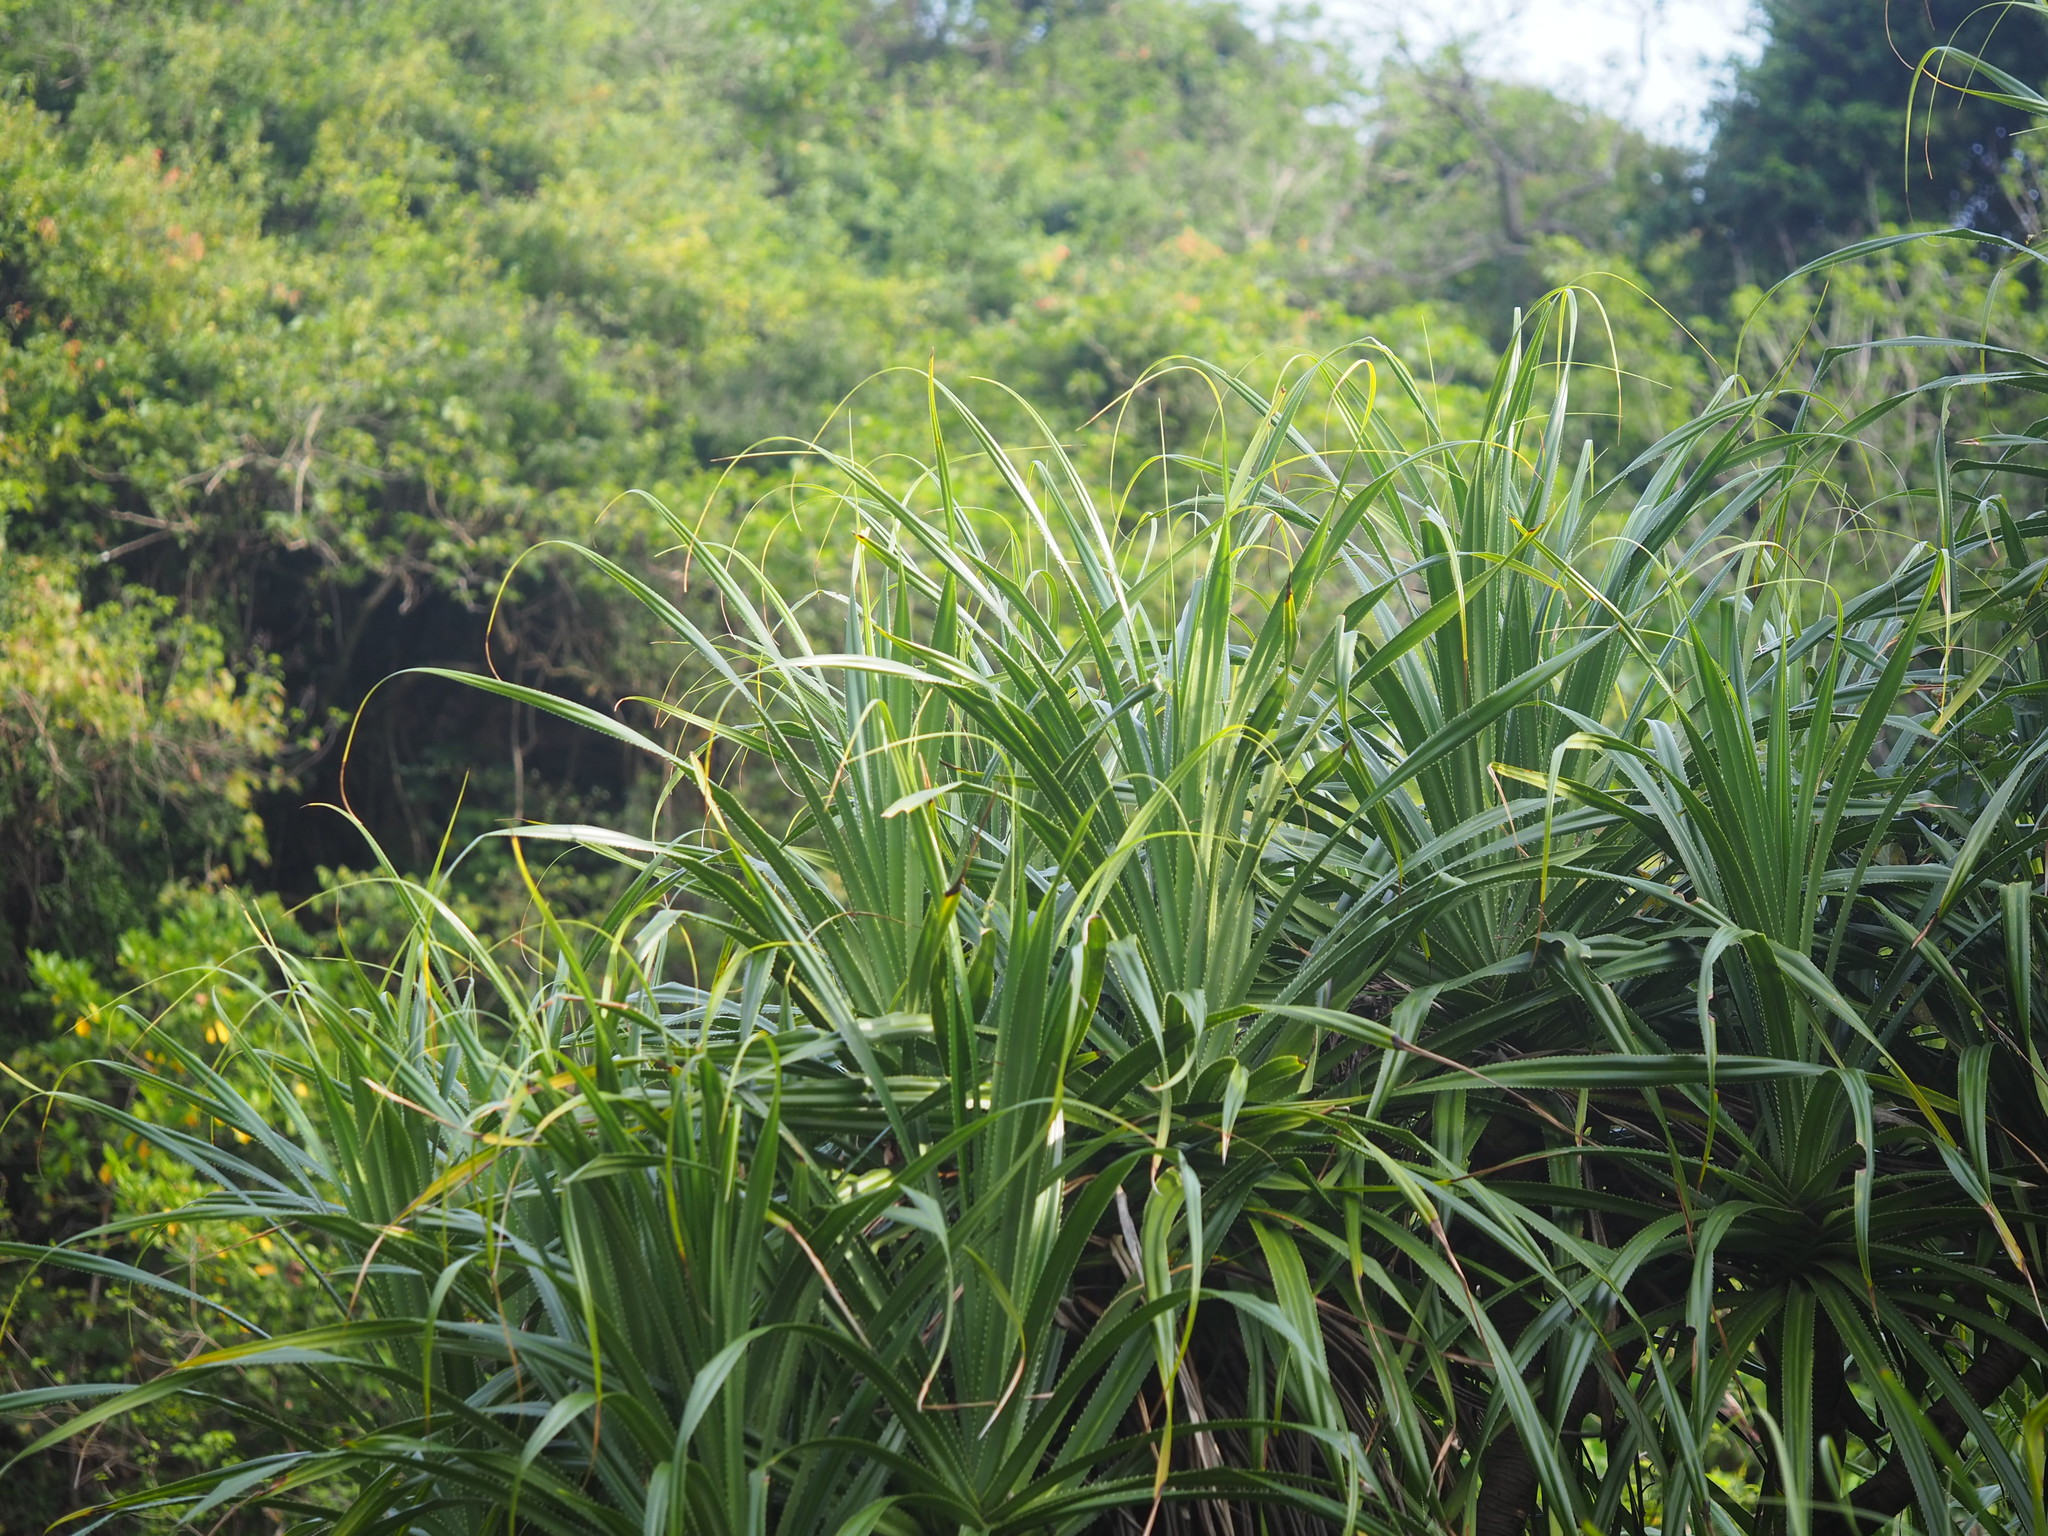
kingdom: Plantae
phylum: Tracheophyta
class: Liliopsida
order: Pandanales
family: Pandanaceae
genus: Pandanus
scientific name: Pandanus odorifer
